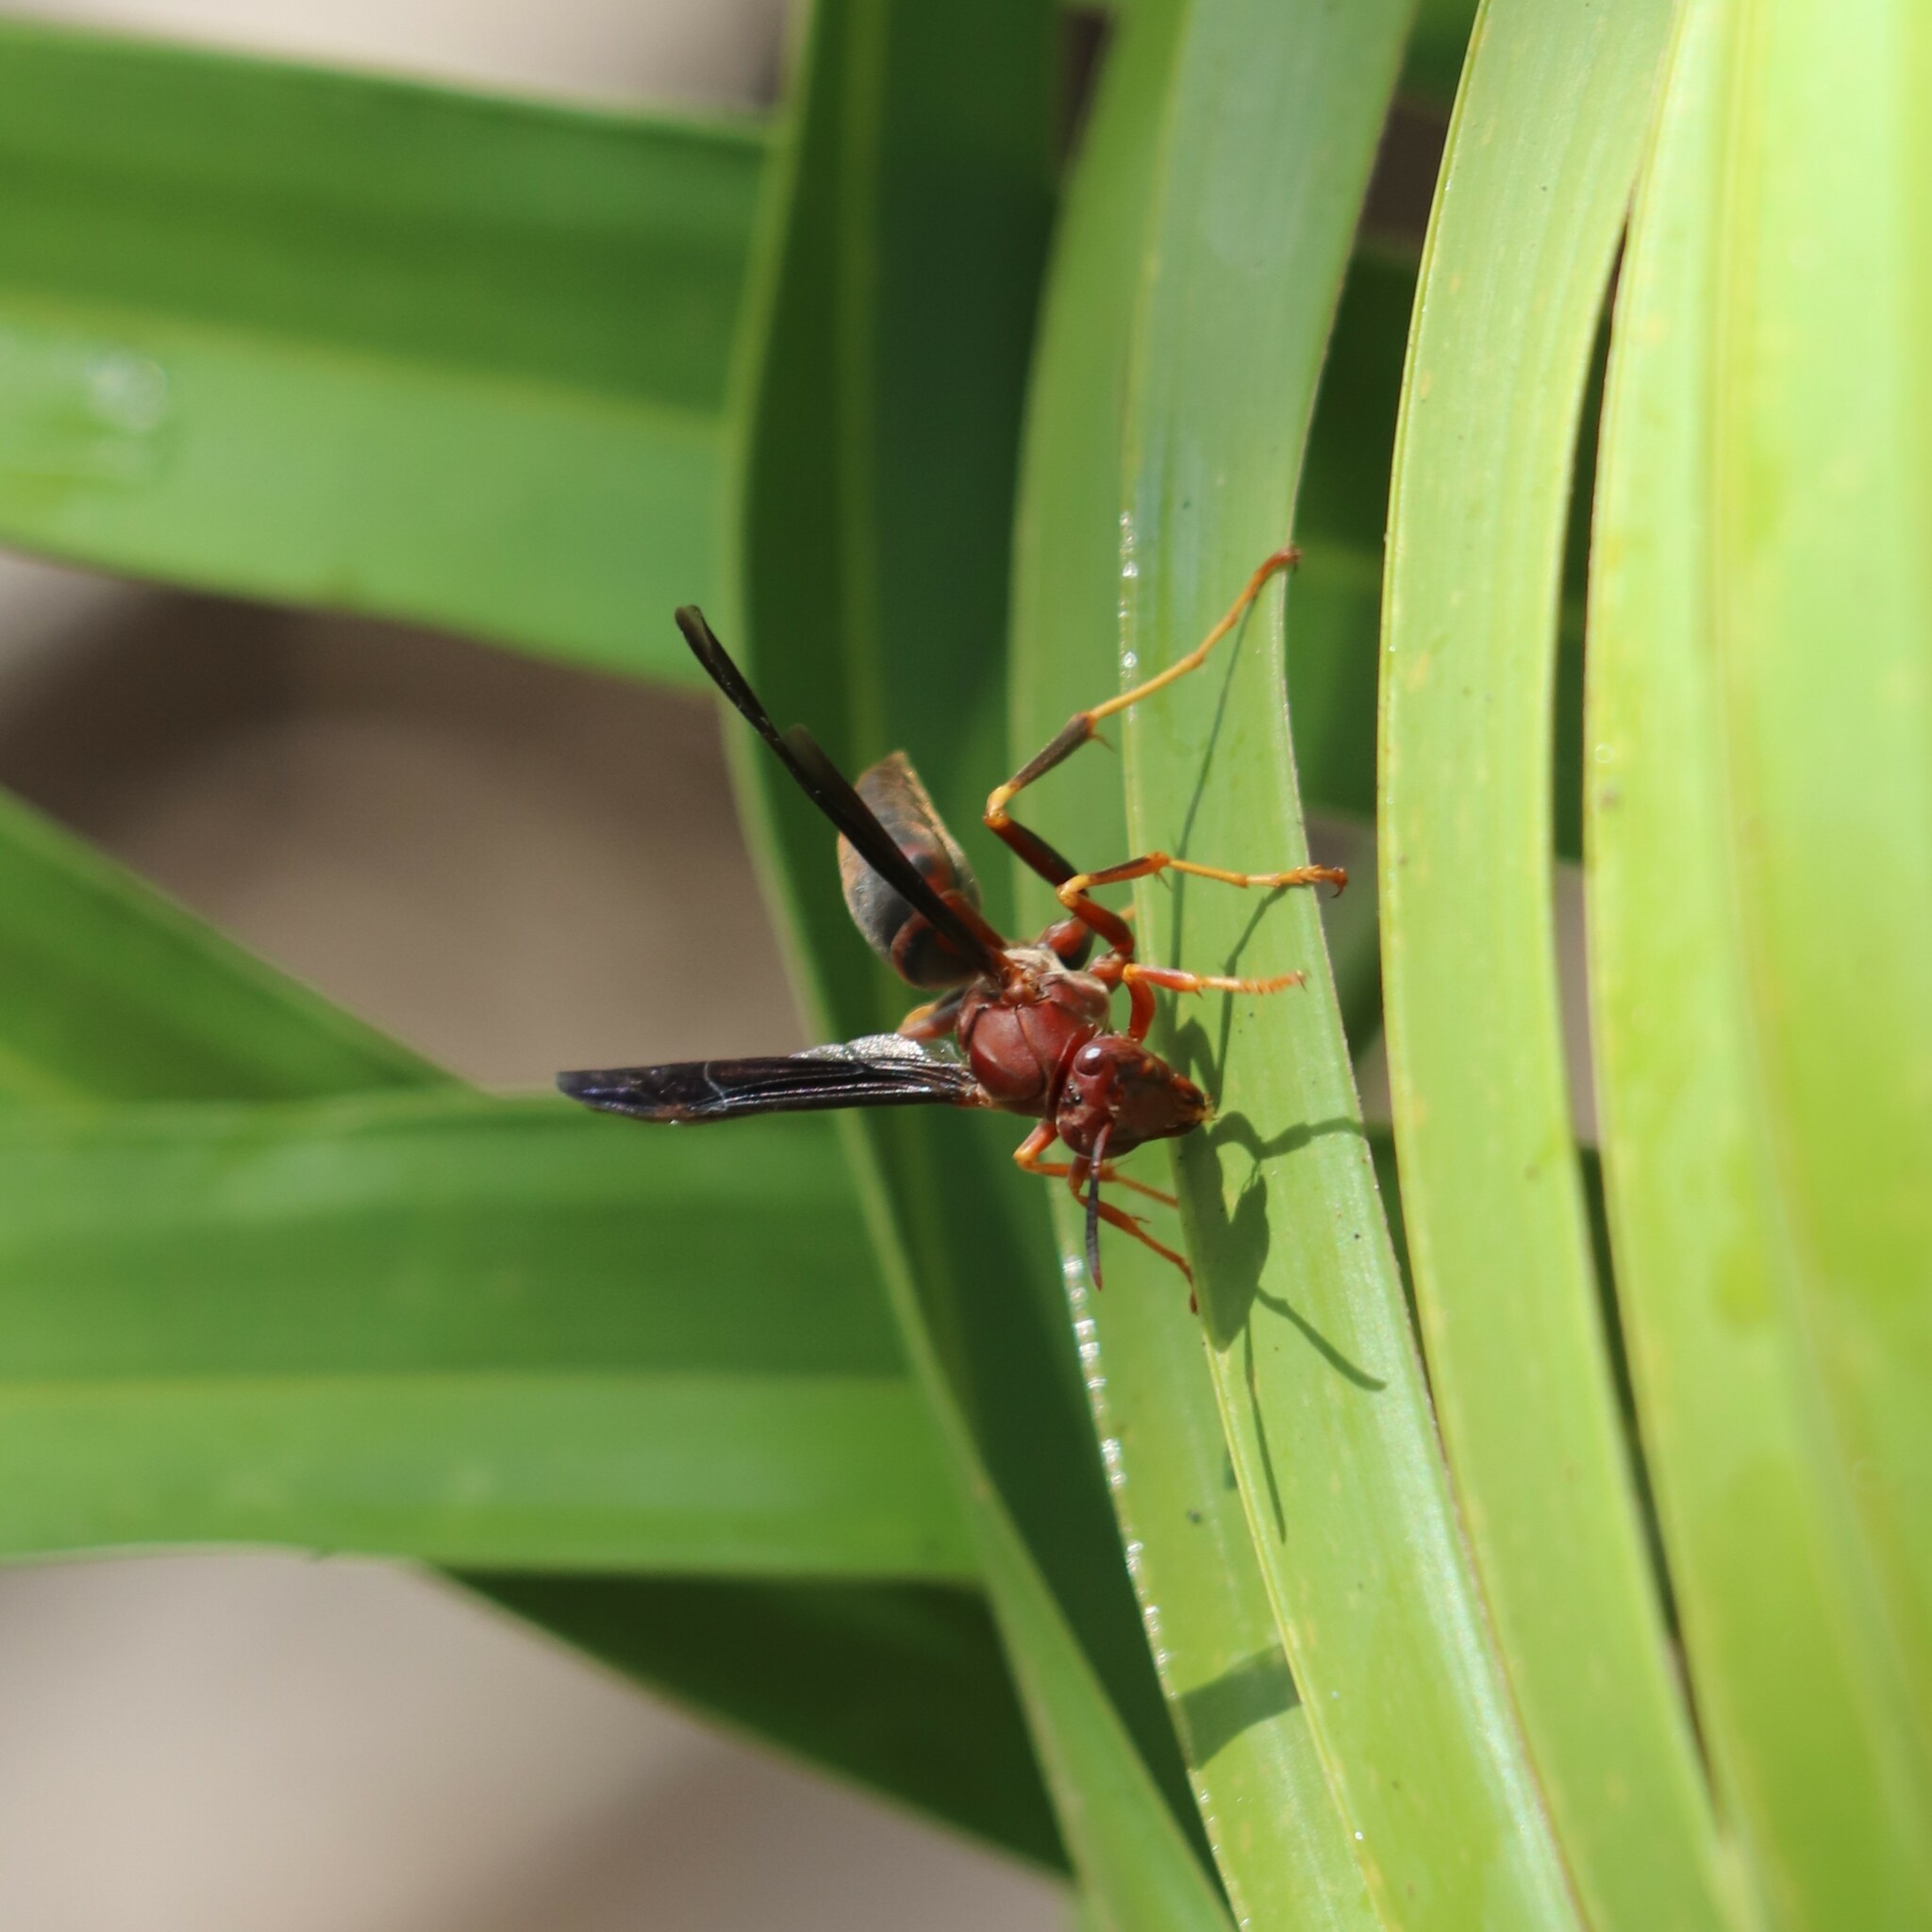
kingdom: Animalia
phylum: Arthropoda
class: Insecta
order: Hymenoptera
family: Eumenidae
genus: Polistes
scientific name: Polistes metricus
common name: Metric paper wasp
